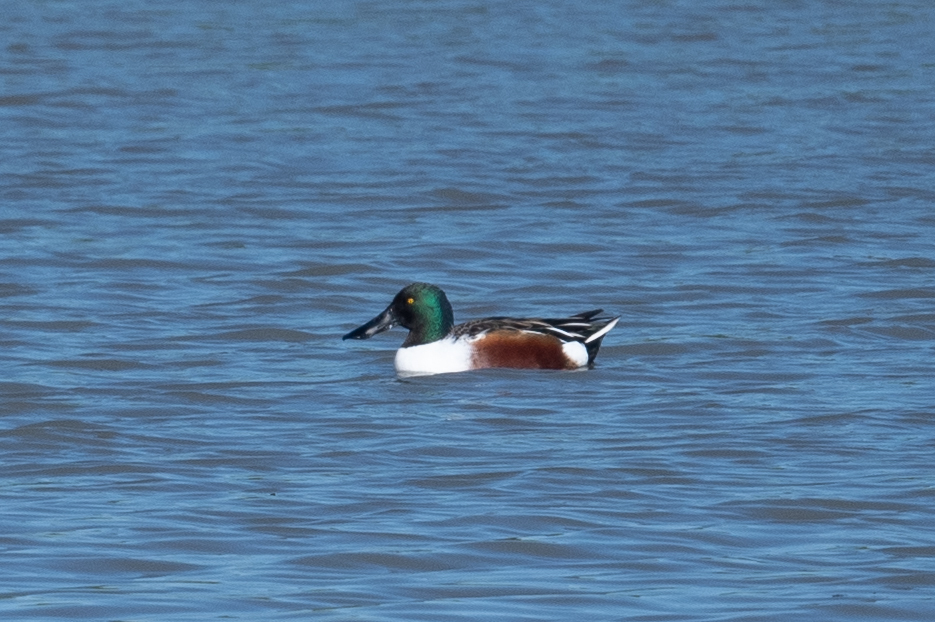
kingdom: Animalia
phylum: Chordata
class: Aves
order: Anseriformes
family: Anatidae
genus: Spatula
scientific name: Spatula clypeata
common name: Northern shoveler
